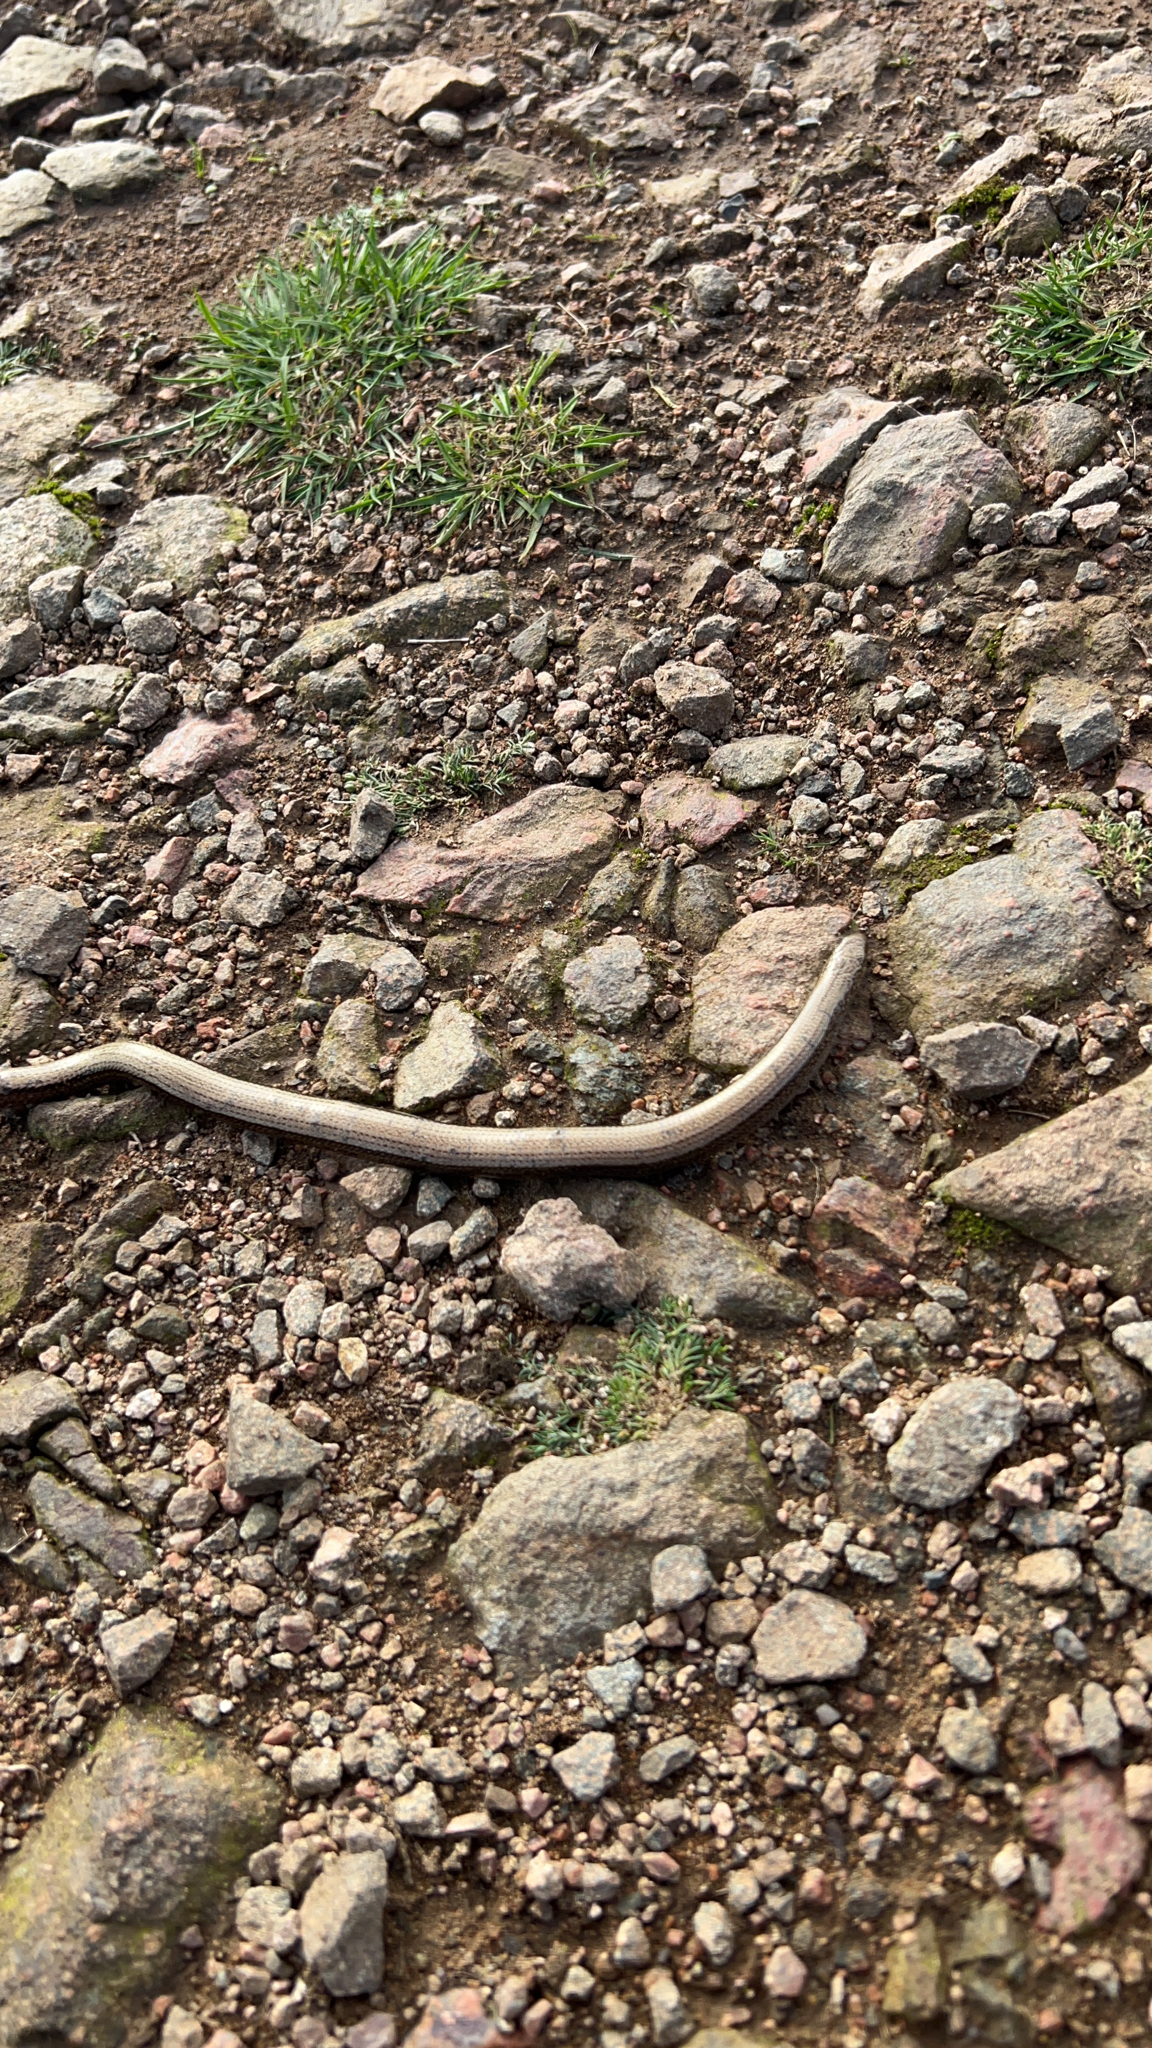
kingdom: Animalia
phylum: Chordata
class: Squamata
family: Anguidae
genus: Anguis
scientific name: Anguis fragilis
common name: Slow worm
